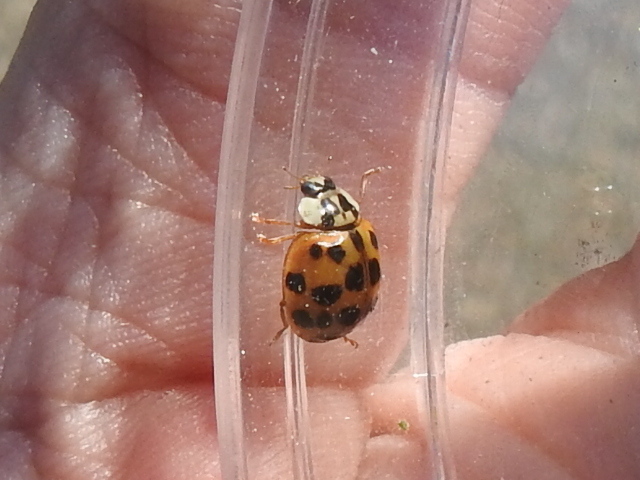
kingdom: Animalia
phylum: Arthropoda
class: Insecta
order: Coleoptera
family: Coccinellidae
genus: Harmonia
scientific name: Harmonia axyridis
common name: Harlequin ladybird
